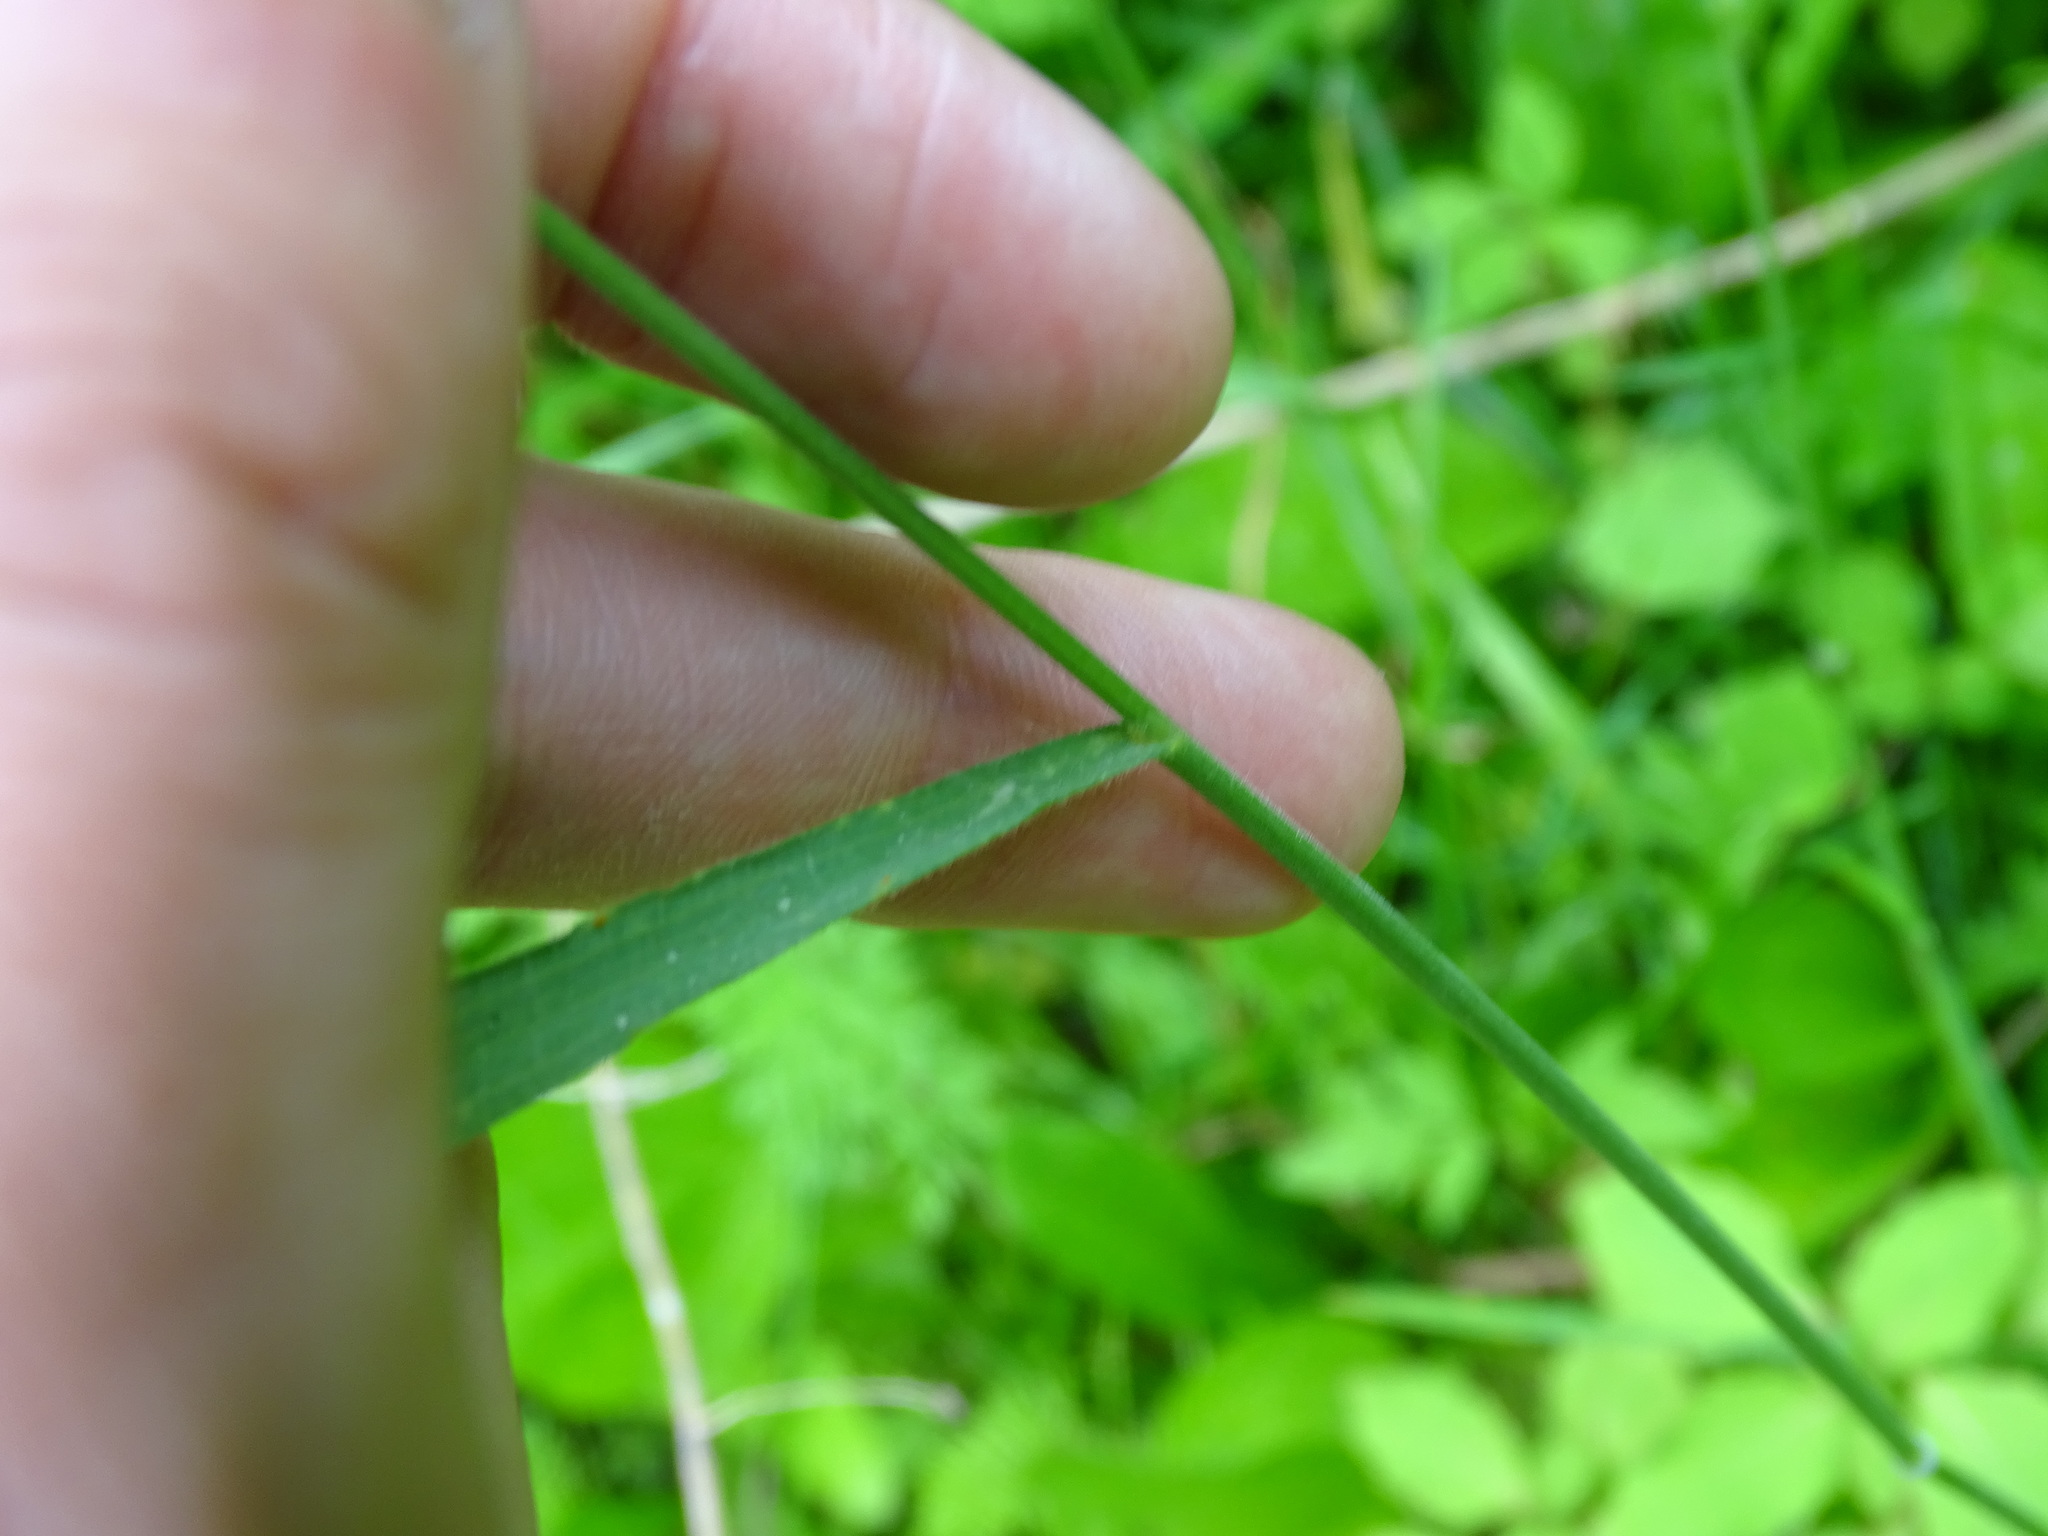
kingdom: Plantae
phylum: Tracheophyta
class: Liliopsida
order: Poales
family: Poaceae
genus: Bromus
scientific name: Bromus commutatus
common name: Meadow brome
